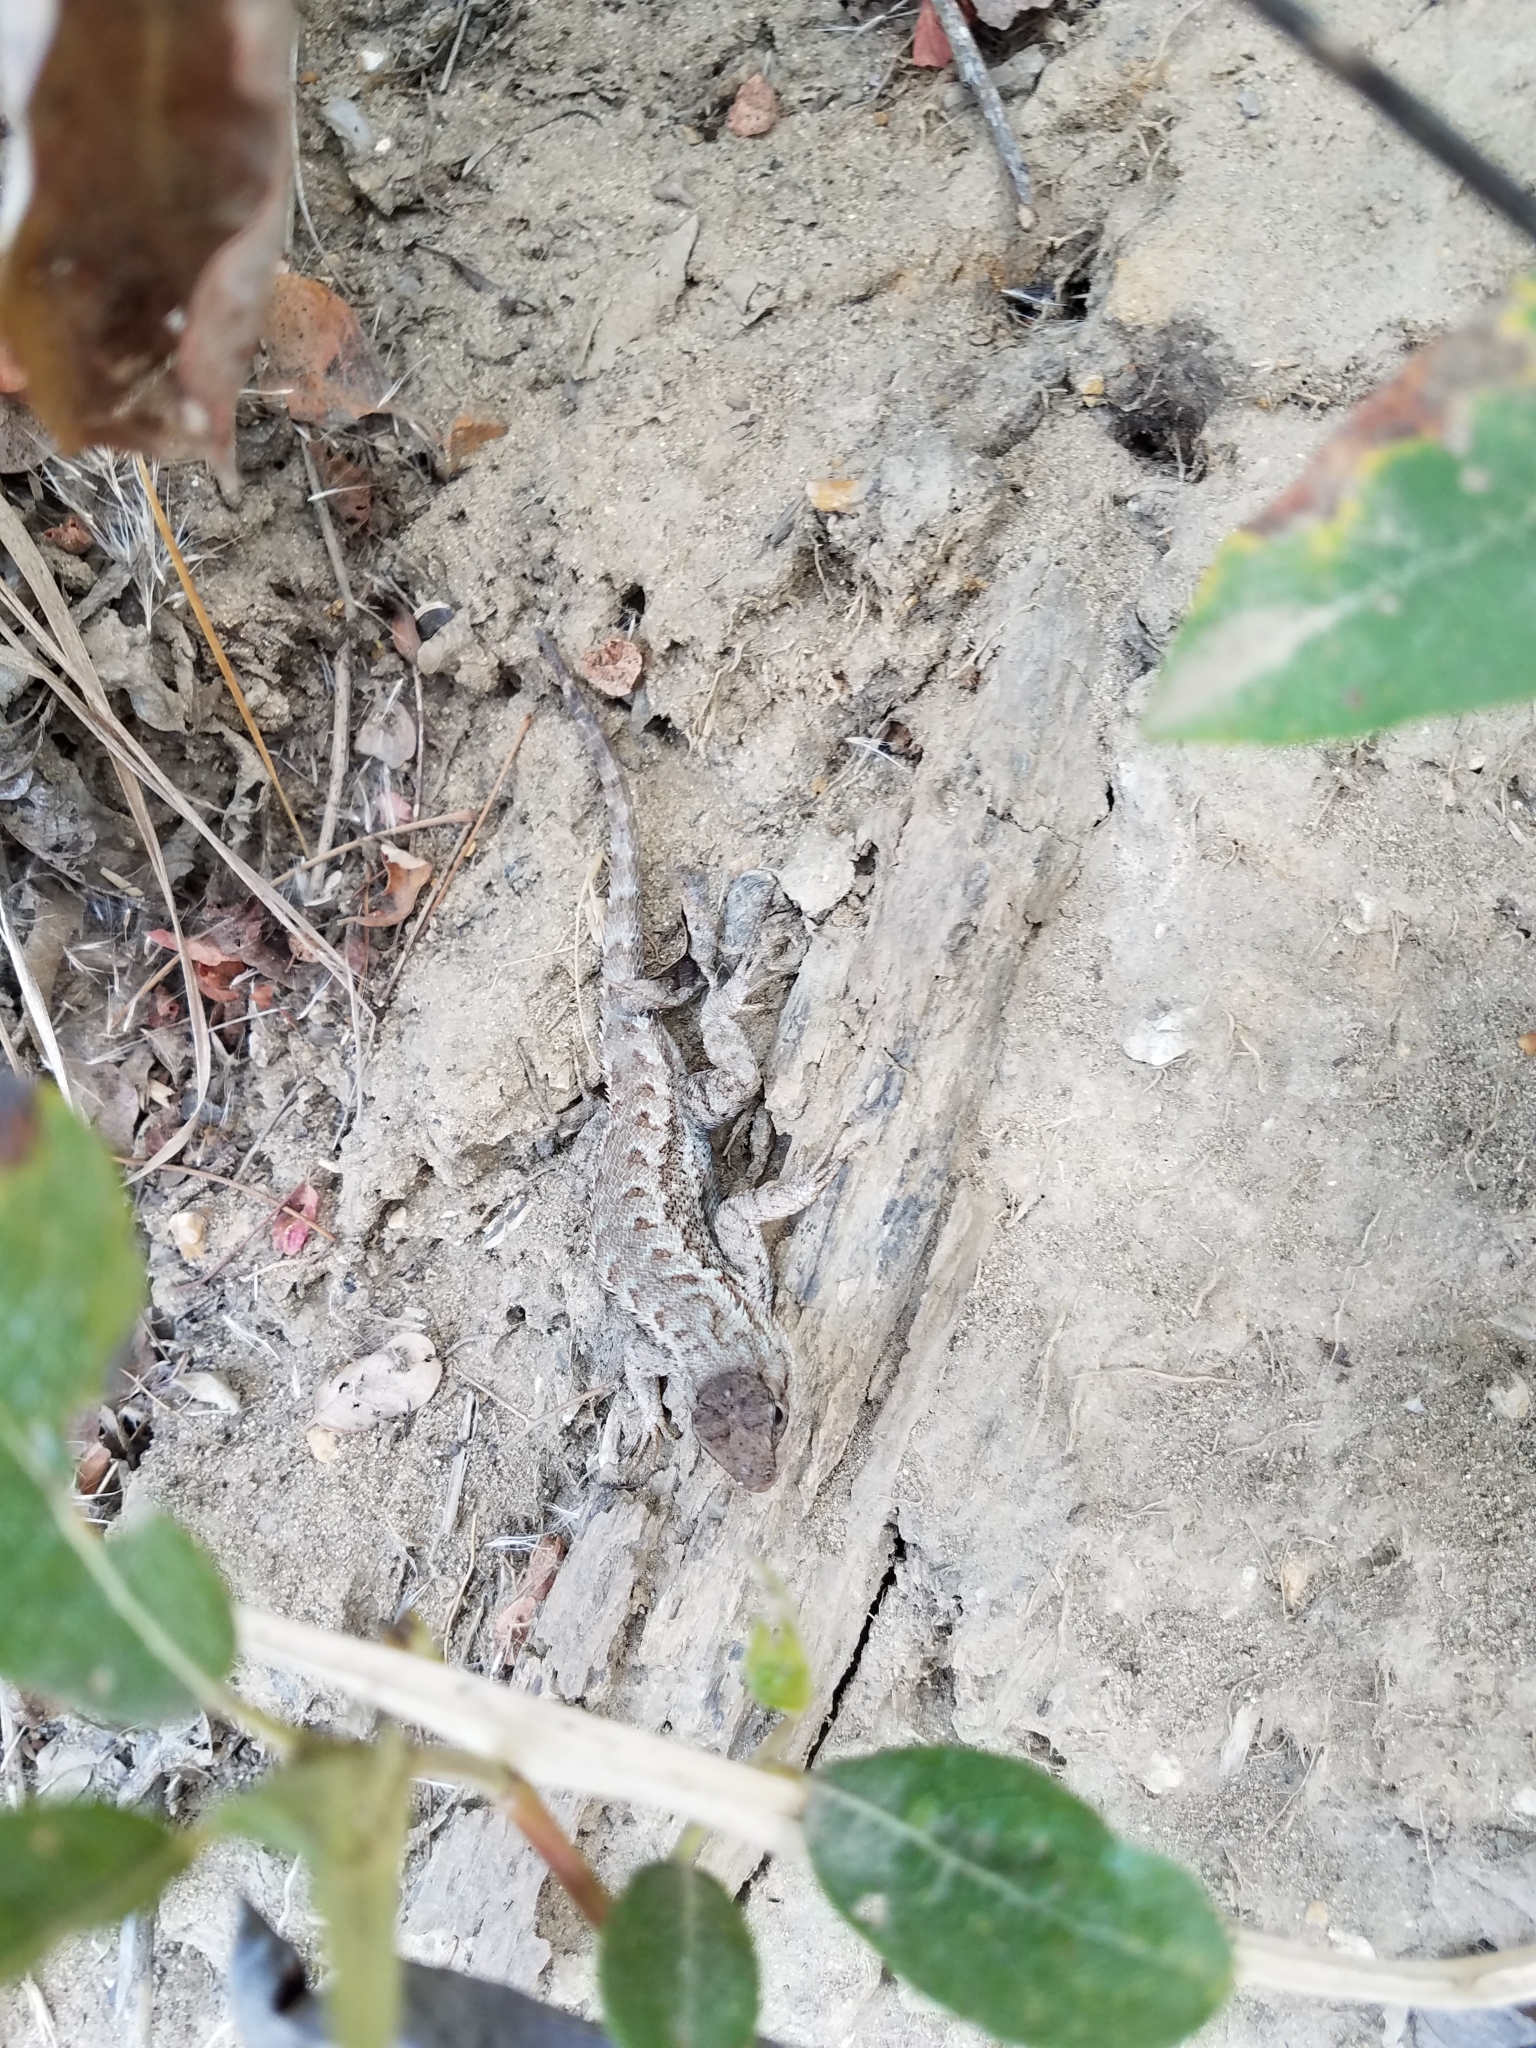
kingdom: Animalia
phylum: Chordata
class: Squamata
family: Phrynosomatidae
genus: Sceloporus
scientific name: Sceloporus occidentalis
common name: Western fence lizard
